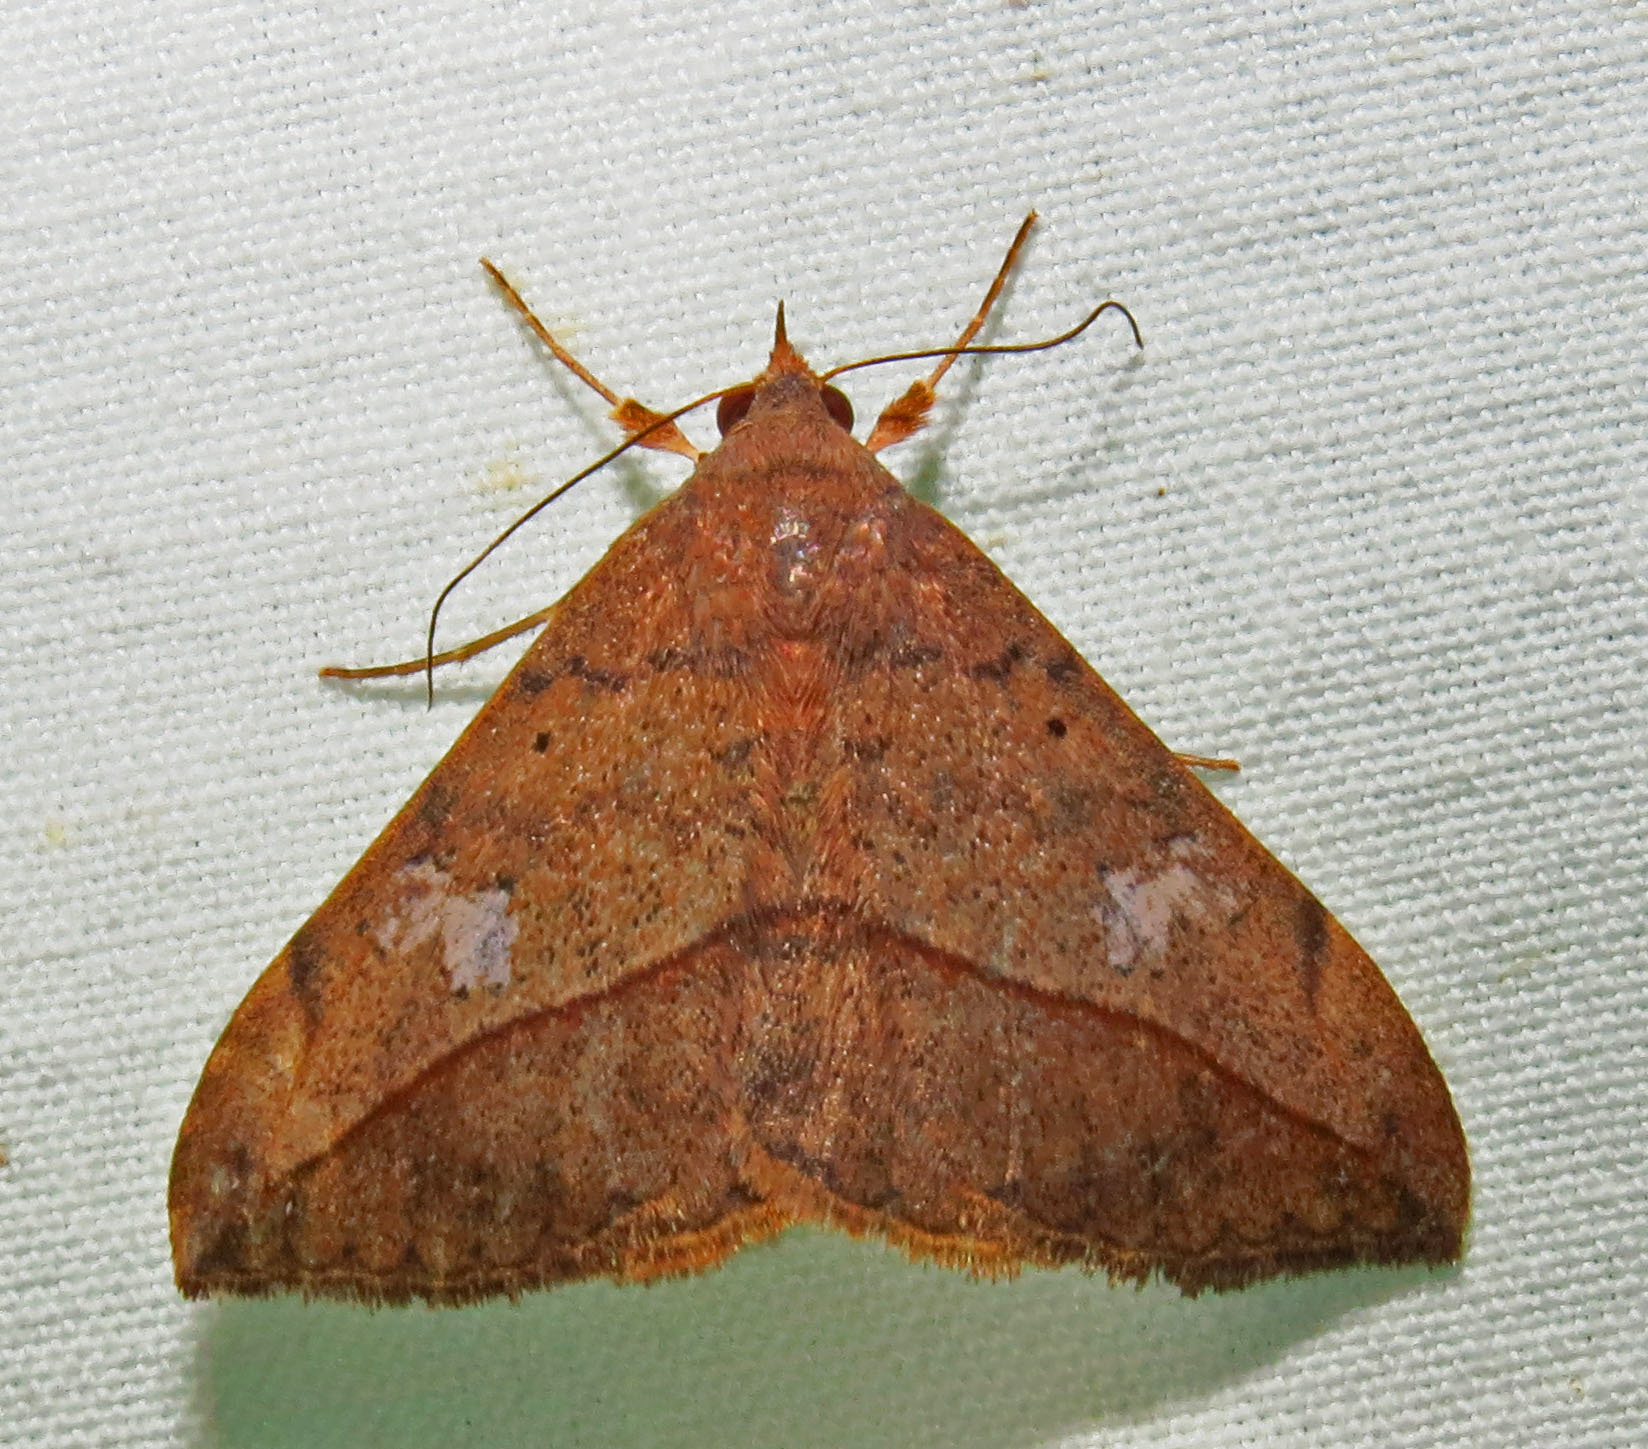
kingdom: Animalia
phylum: Arthropoda
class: Insecta
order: Lepidoptera
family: Erebidae
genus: Anticarsia
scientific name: Anticarsia gemmatalis
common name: Cutworm moth
